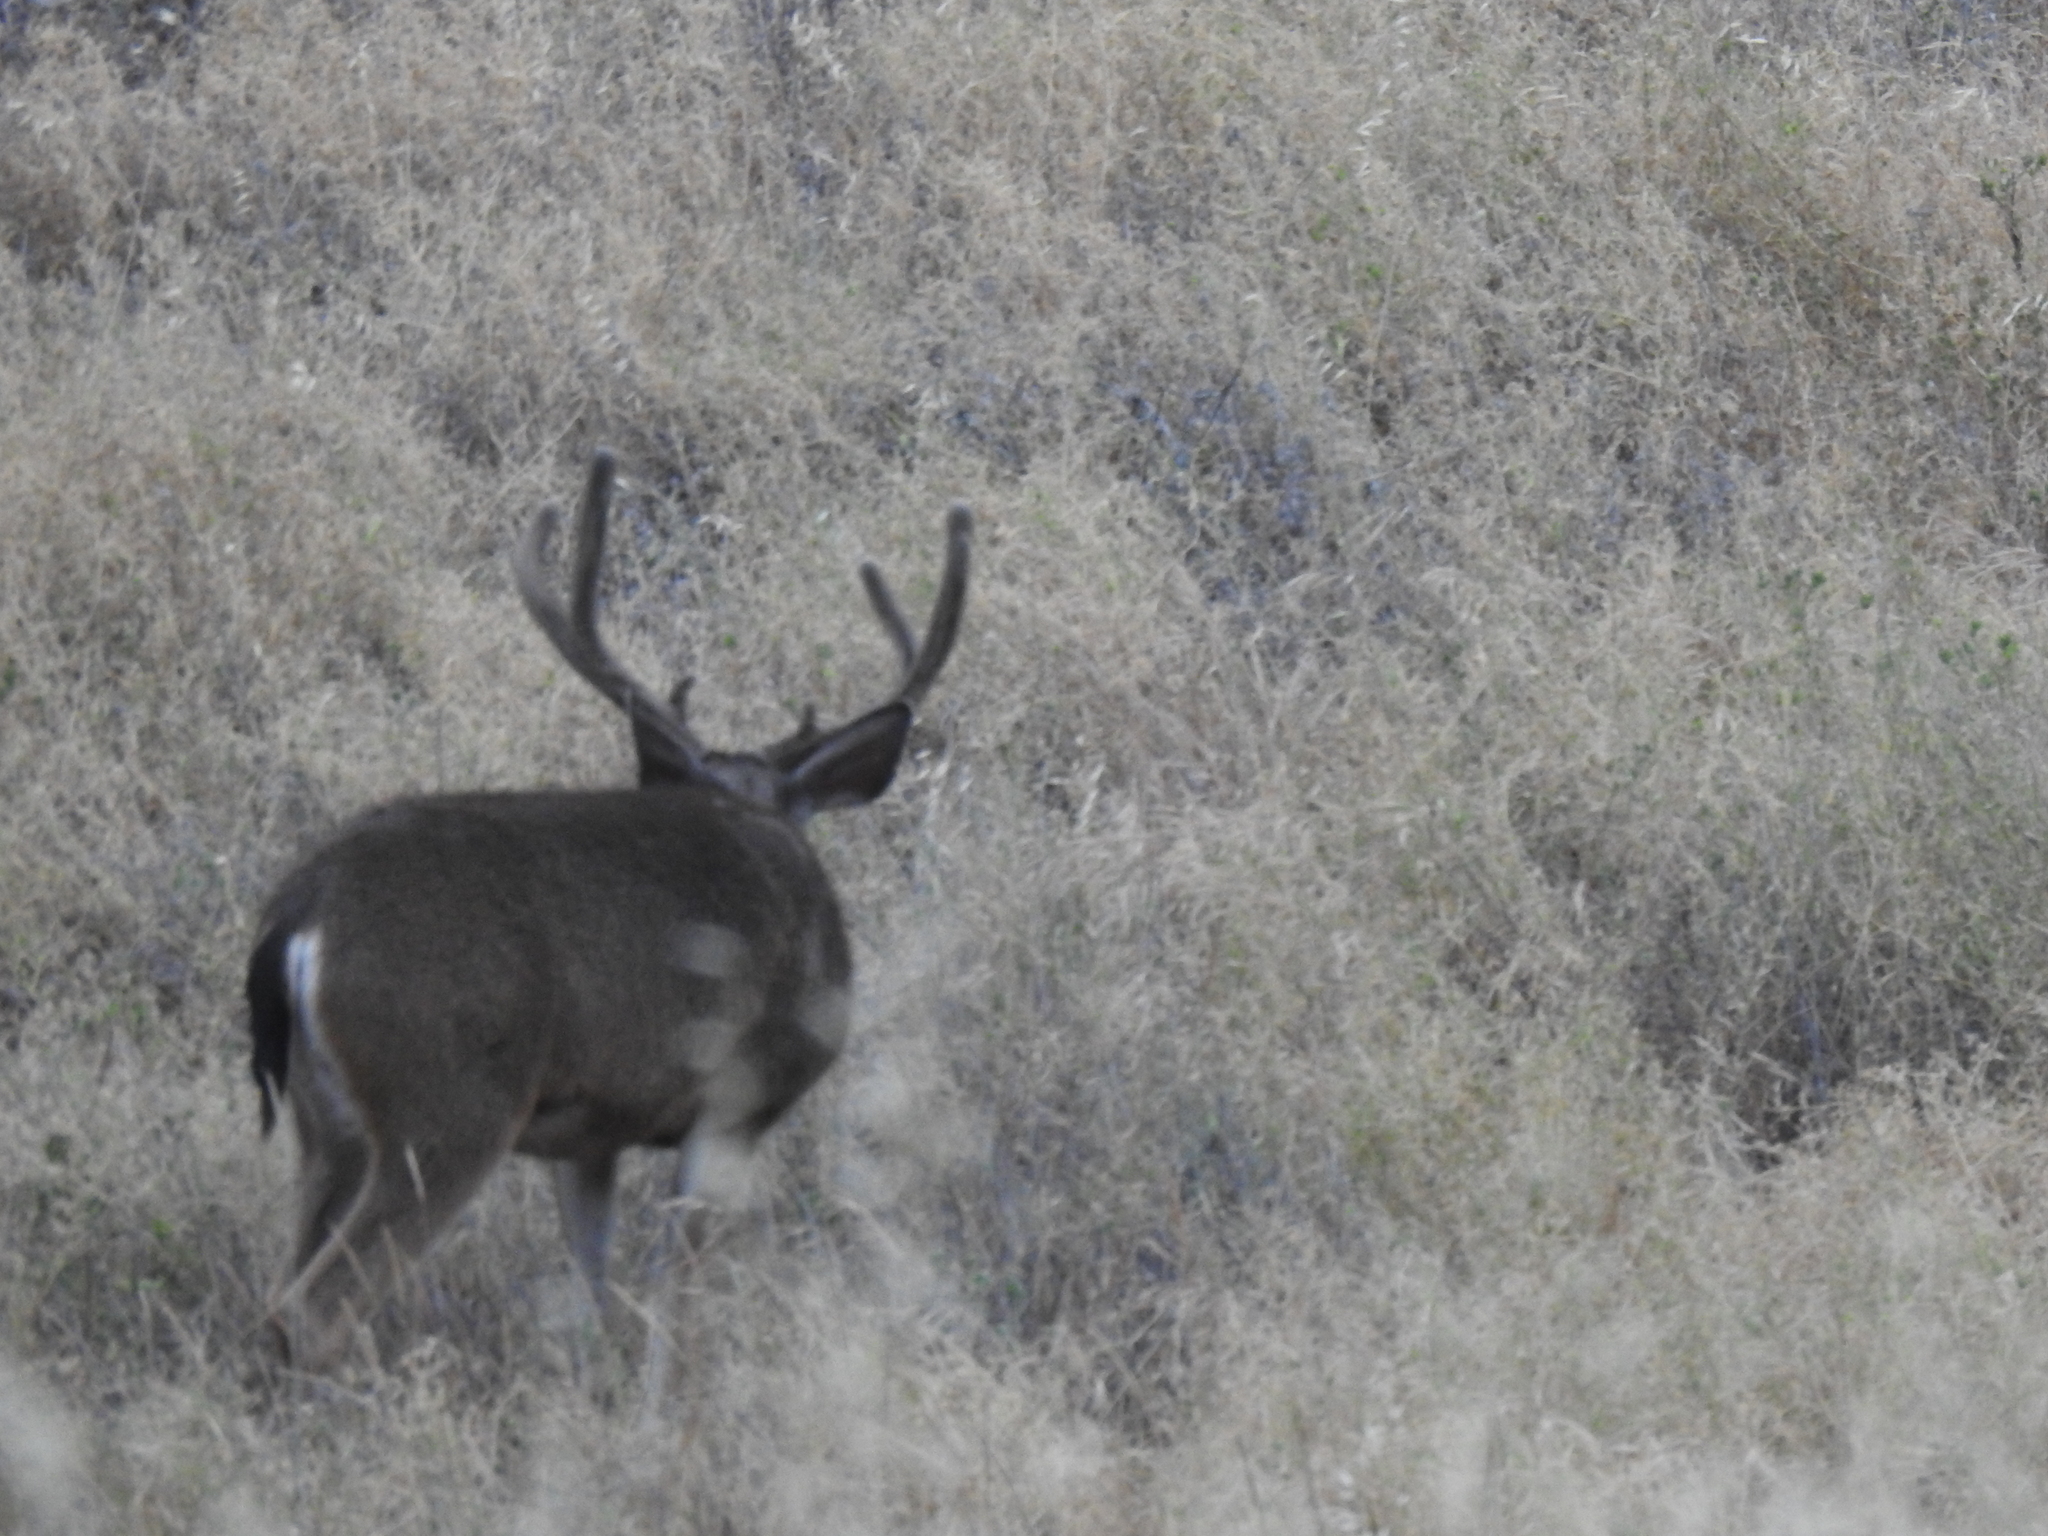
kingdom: Animalia
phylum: Chordata
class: Mammalia
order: Artiodactyla
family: Cervidae
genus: Odocoileus
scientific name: Odocoileus hemionus
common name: Mule deer
